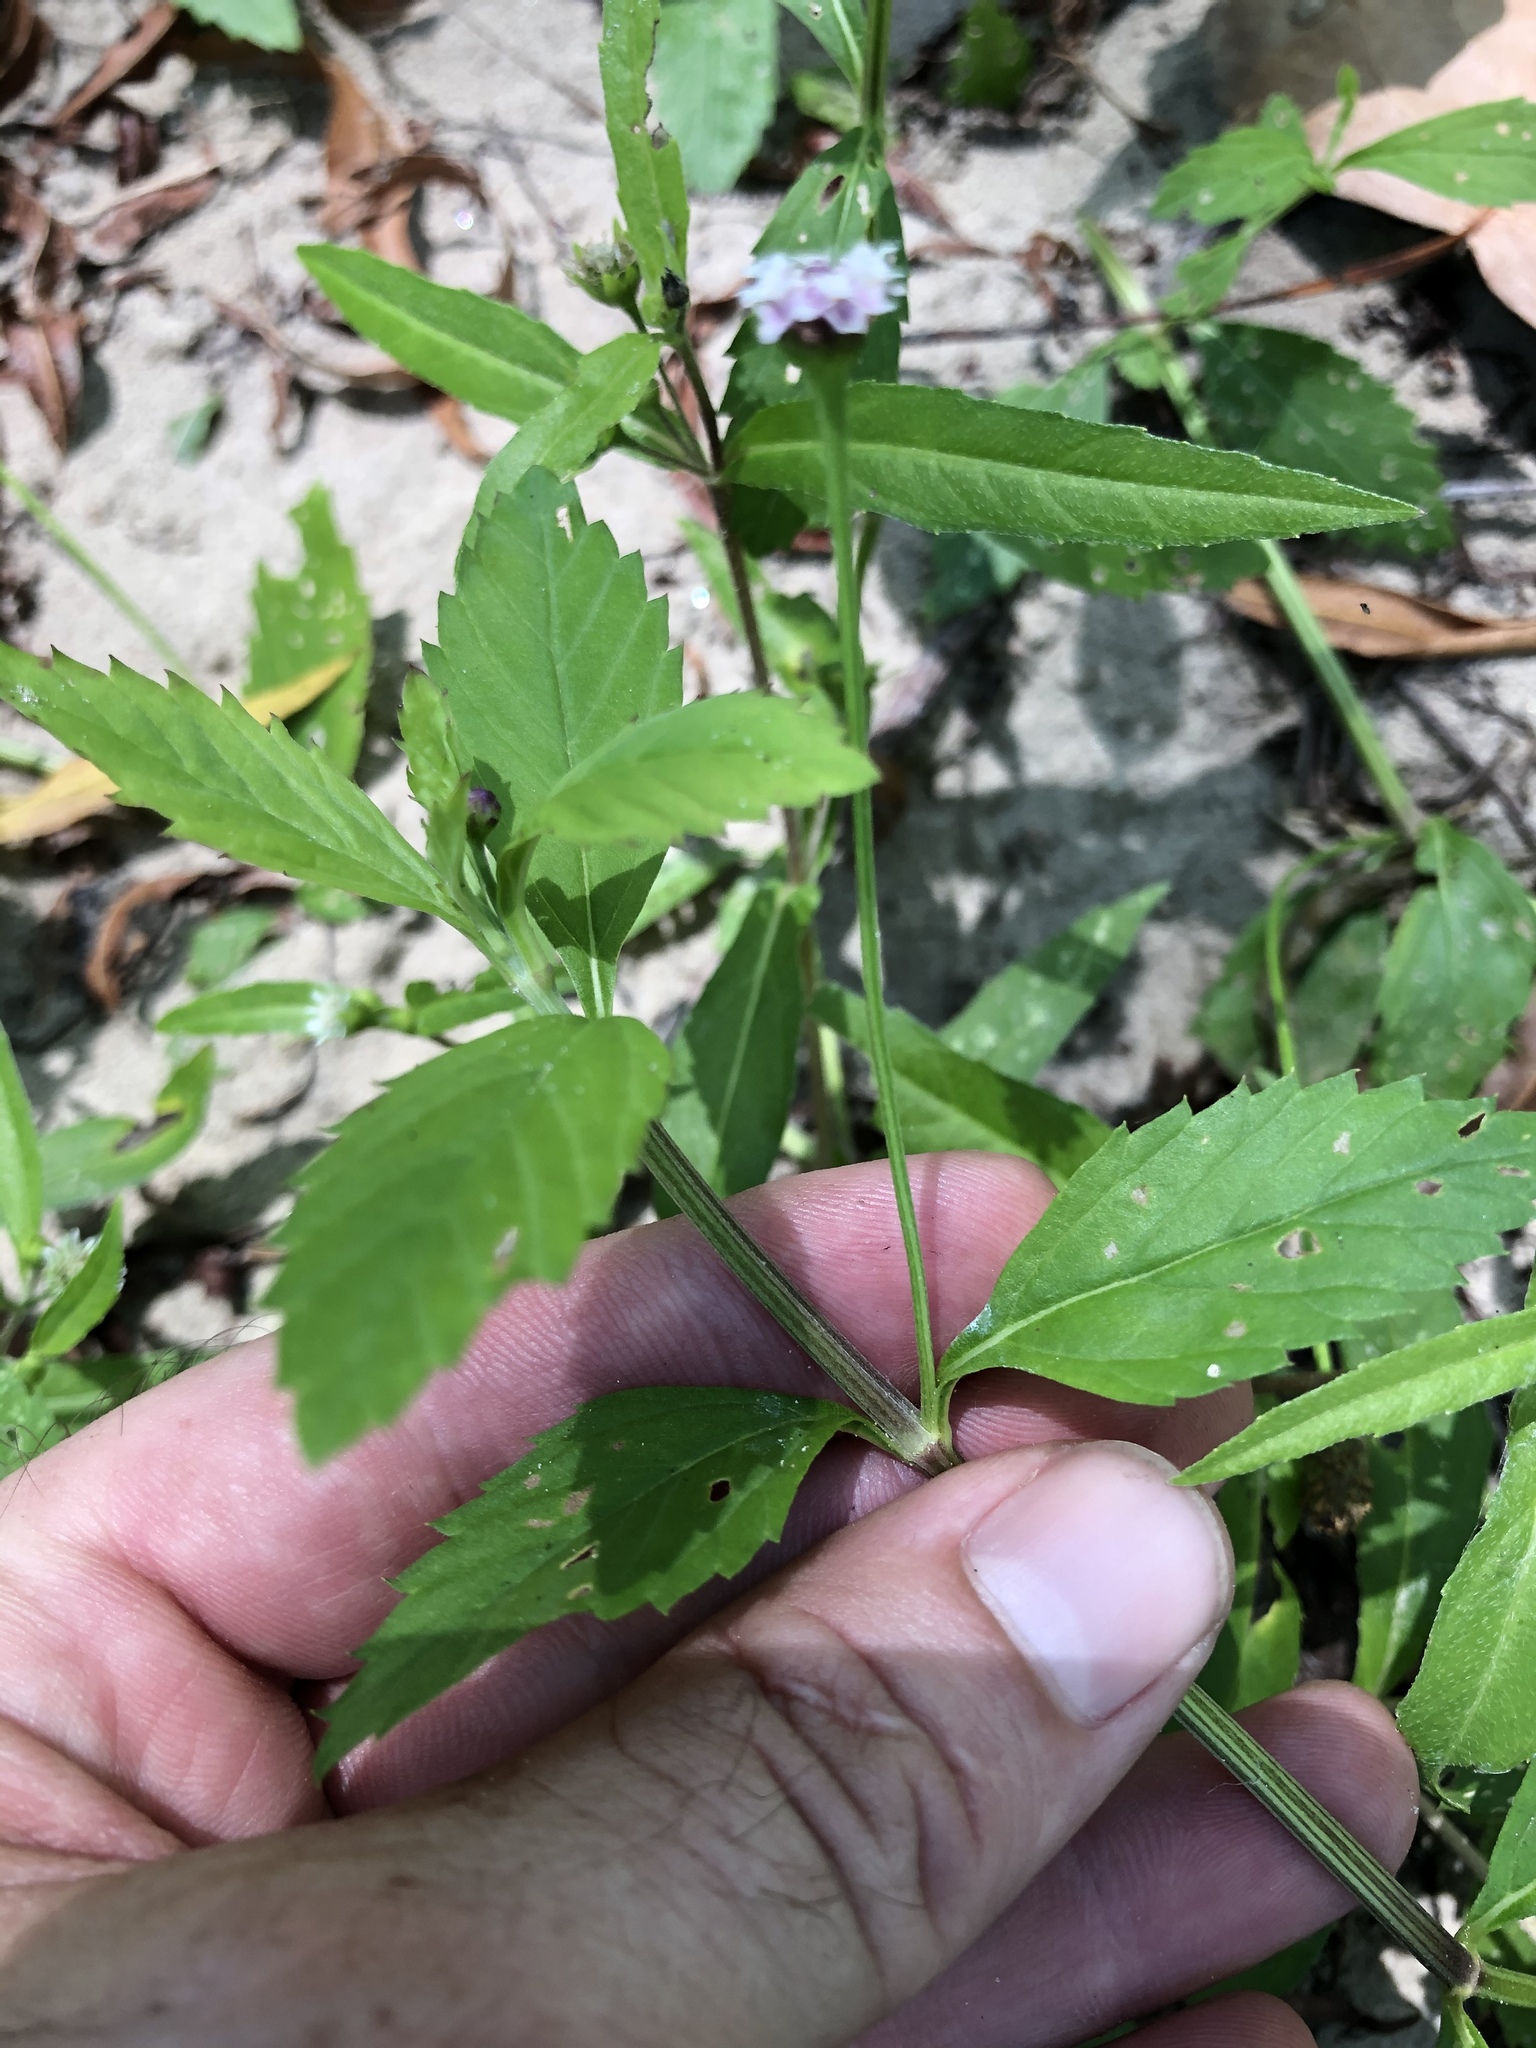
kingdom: Plantae
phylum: Tracheophyta
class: Magnoliopsida
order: Lamiales
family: Verbenaceae
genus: Phyla
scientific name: Phyla lanceolata
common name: Northern fogfruit
